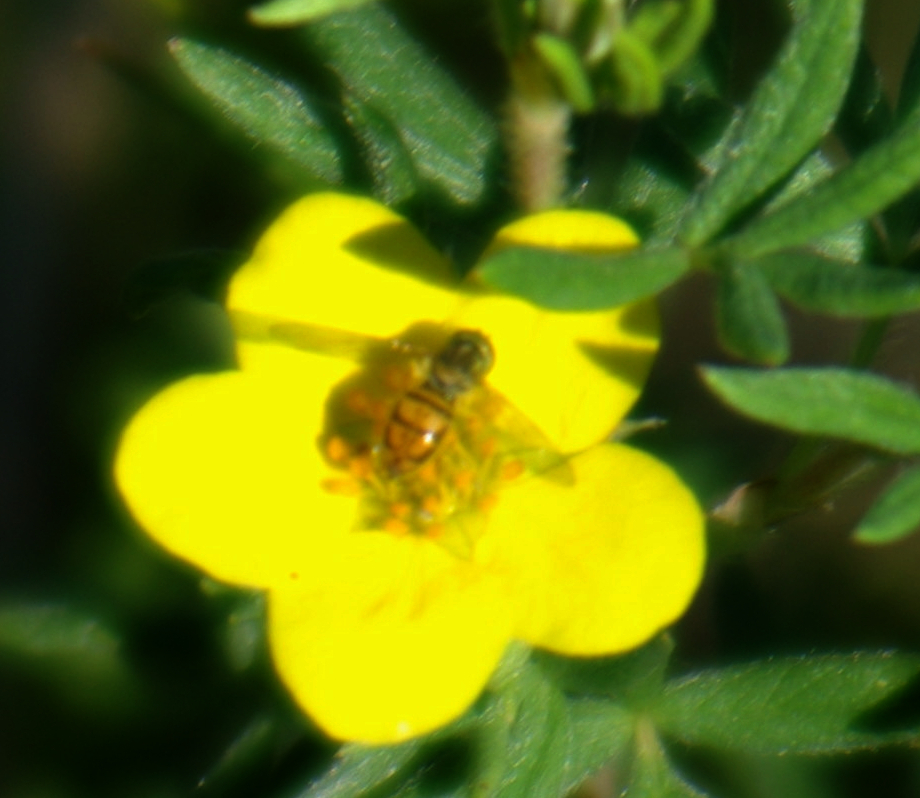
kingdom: Animalia
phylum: Arthropoda
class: Insecta
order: Diptera
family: Syrphidae
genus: Toxomerus
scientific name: Toxomerus marginatus
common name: Syrphid fly
